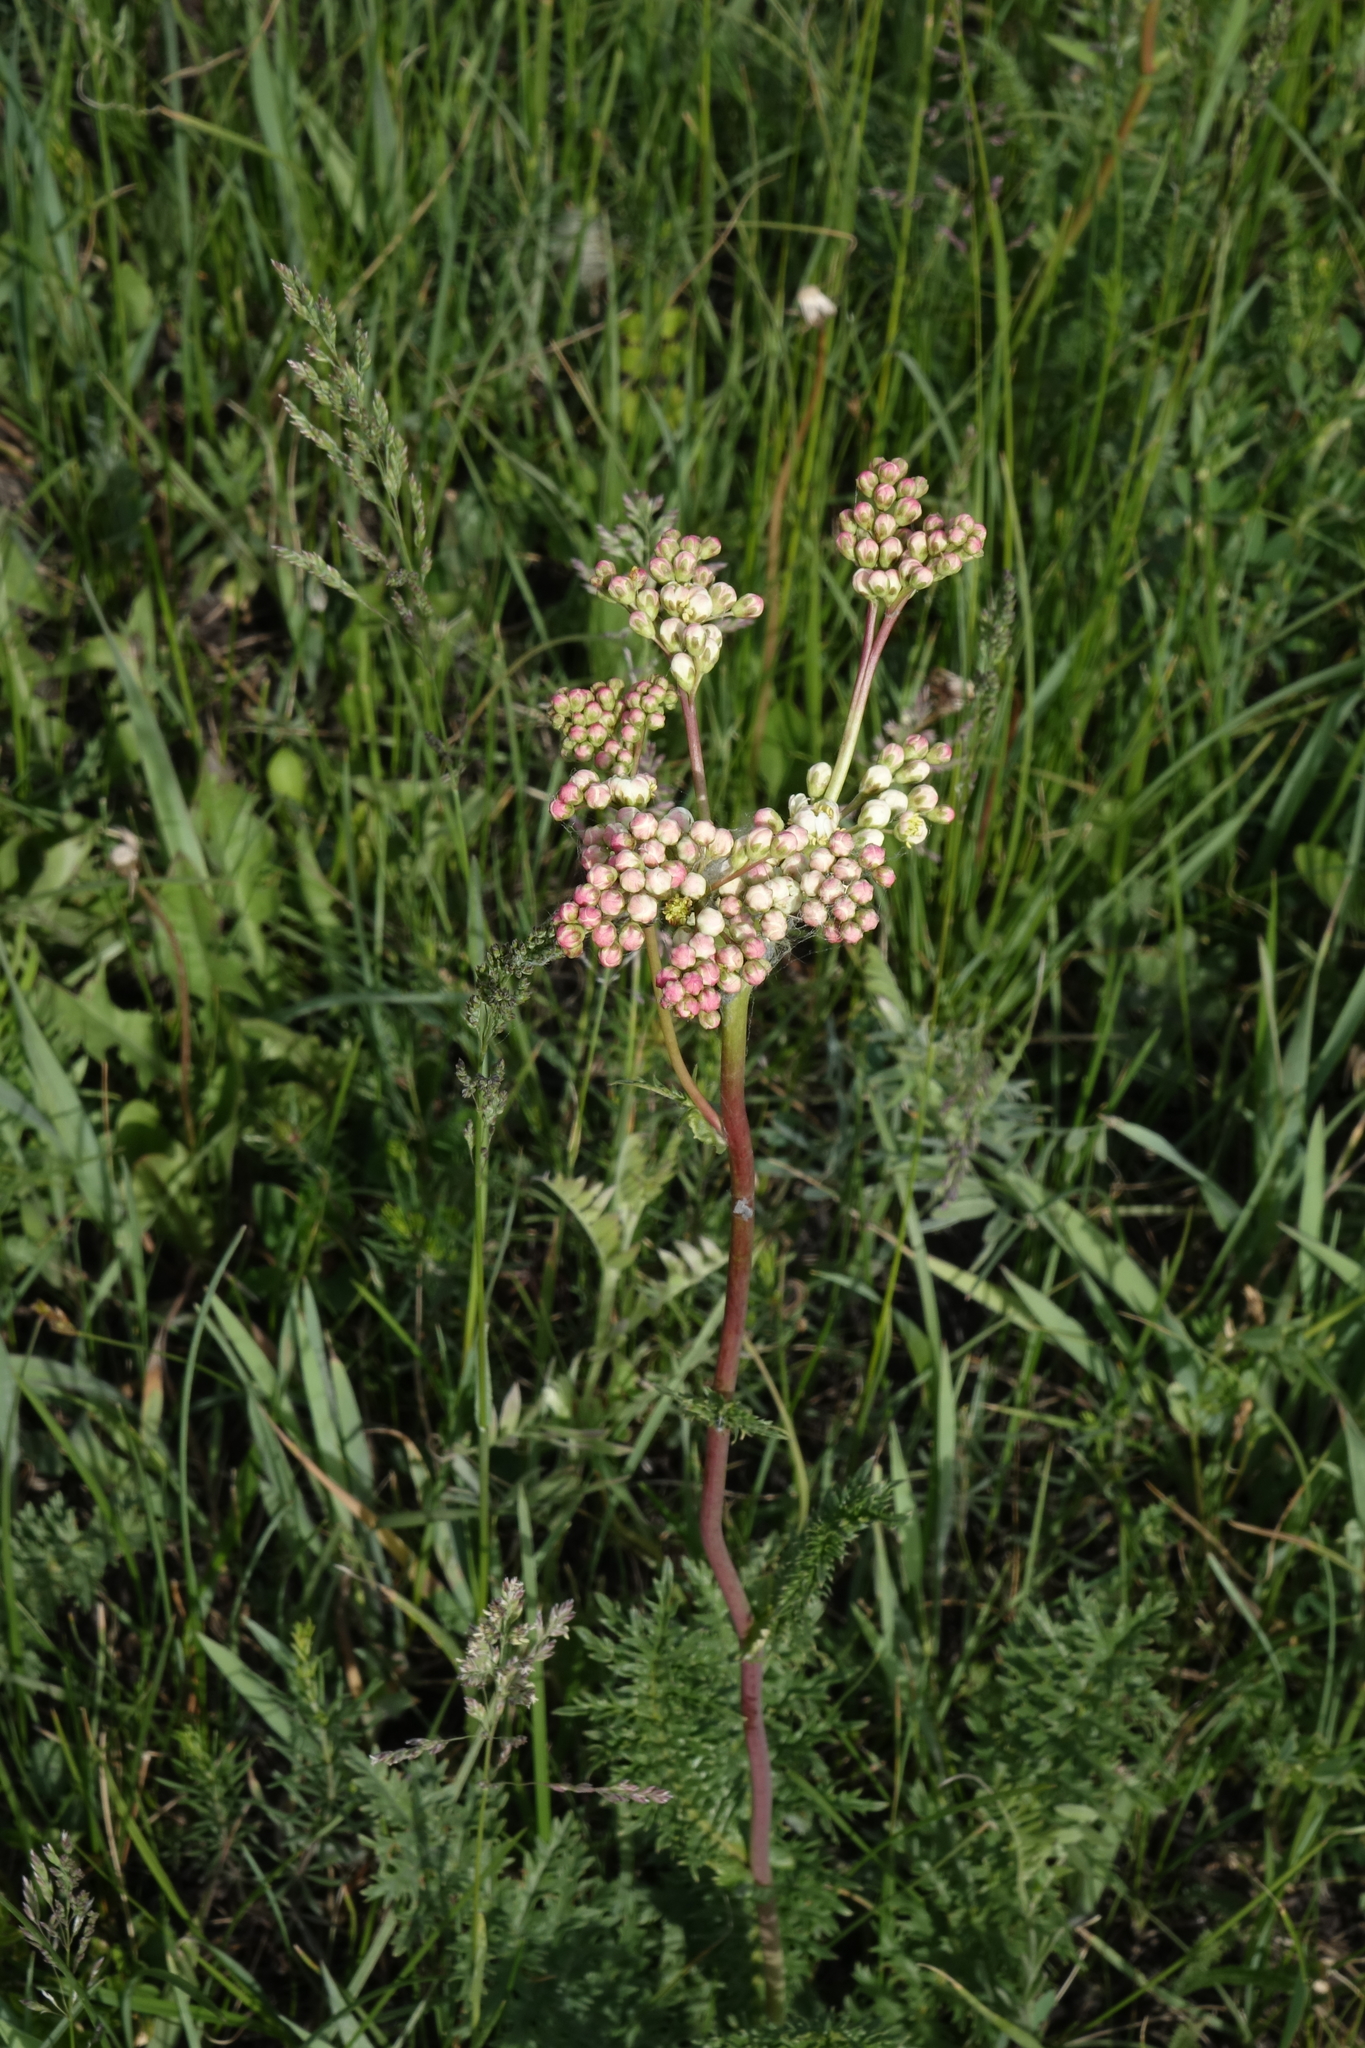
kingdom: Plantae
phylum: Tracheophyta
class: Magnoliopsida
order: Rosales
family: Rosaceae
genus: Filipendula
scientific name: Filipendula vulgaris
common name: Dropwort
